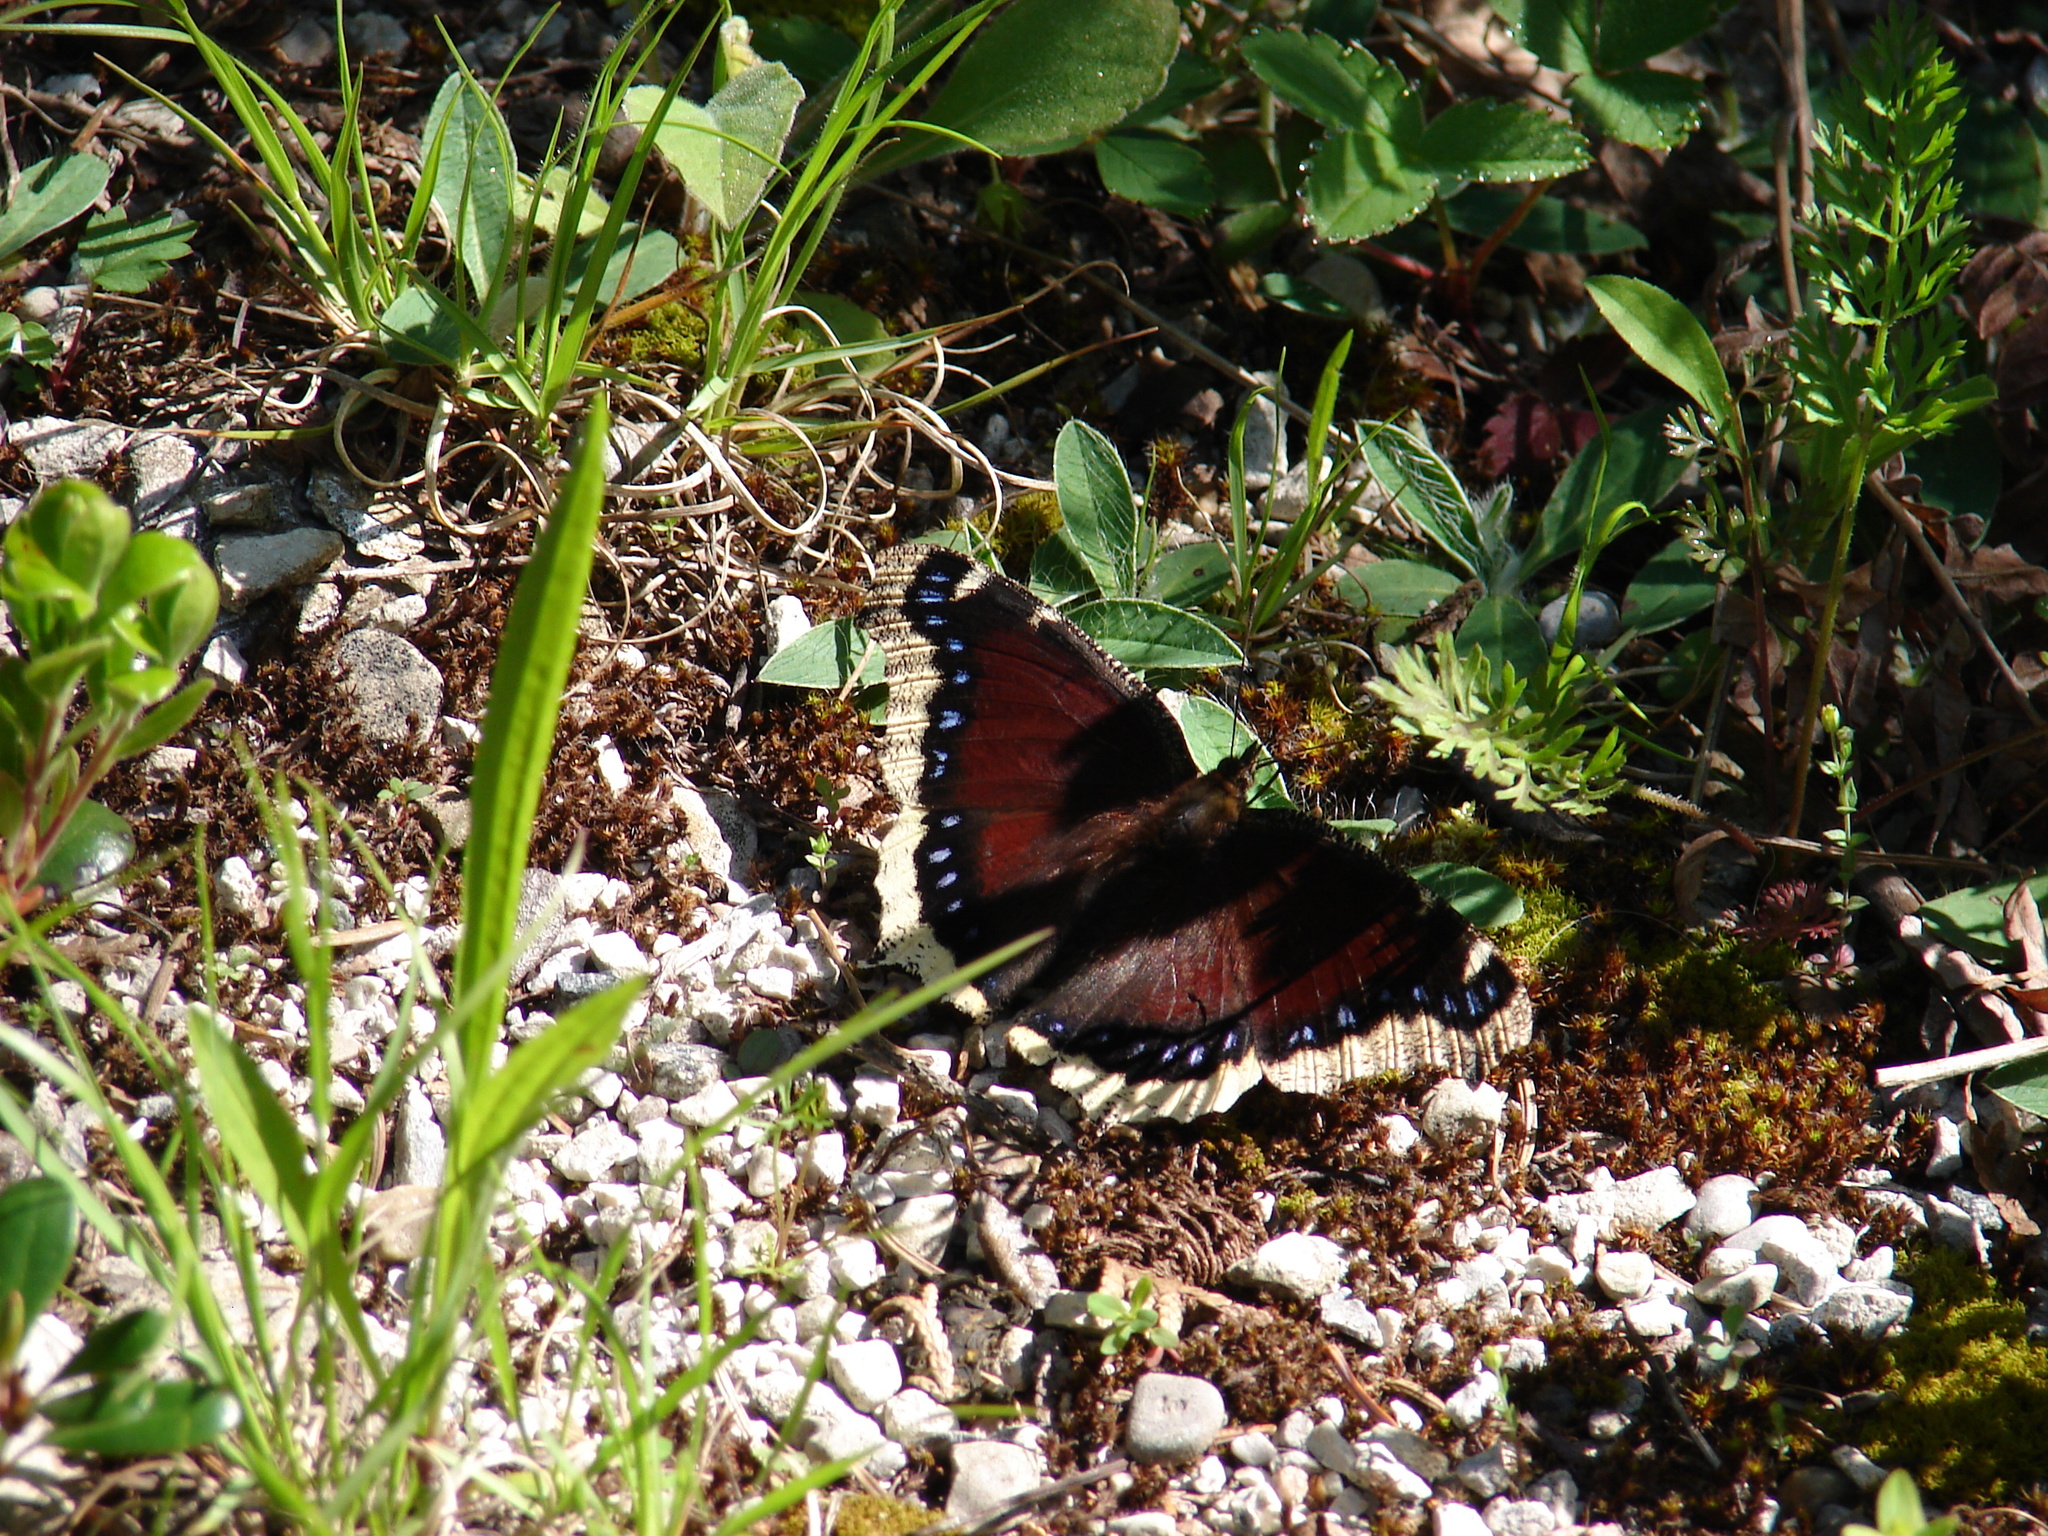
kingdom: Animalia
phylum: Arthropoda
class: Insecta
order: Lepidoptera
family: Nymphalidae
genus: Nymphalis
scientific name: Nymphalis antiopa
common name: Camberwell beauty
